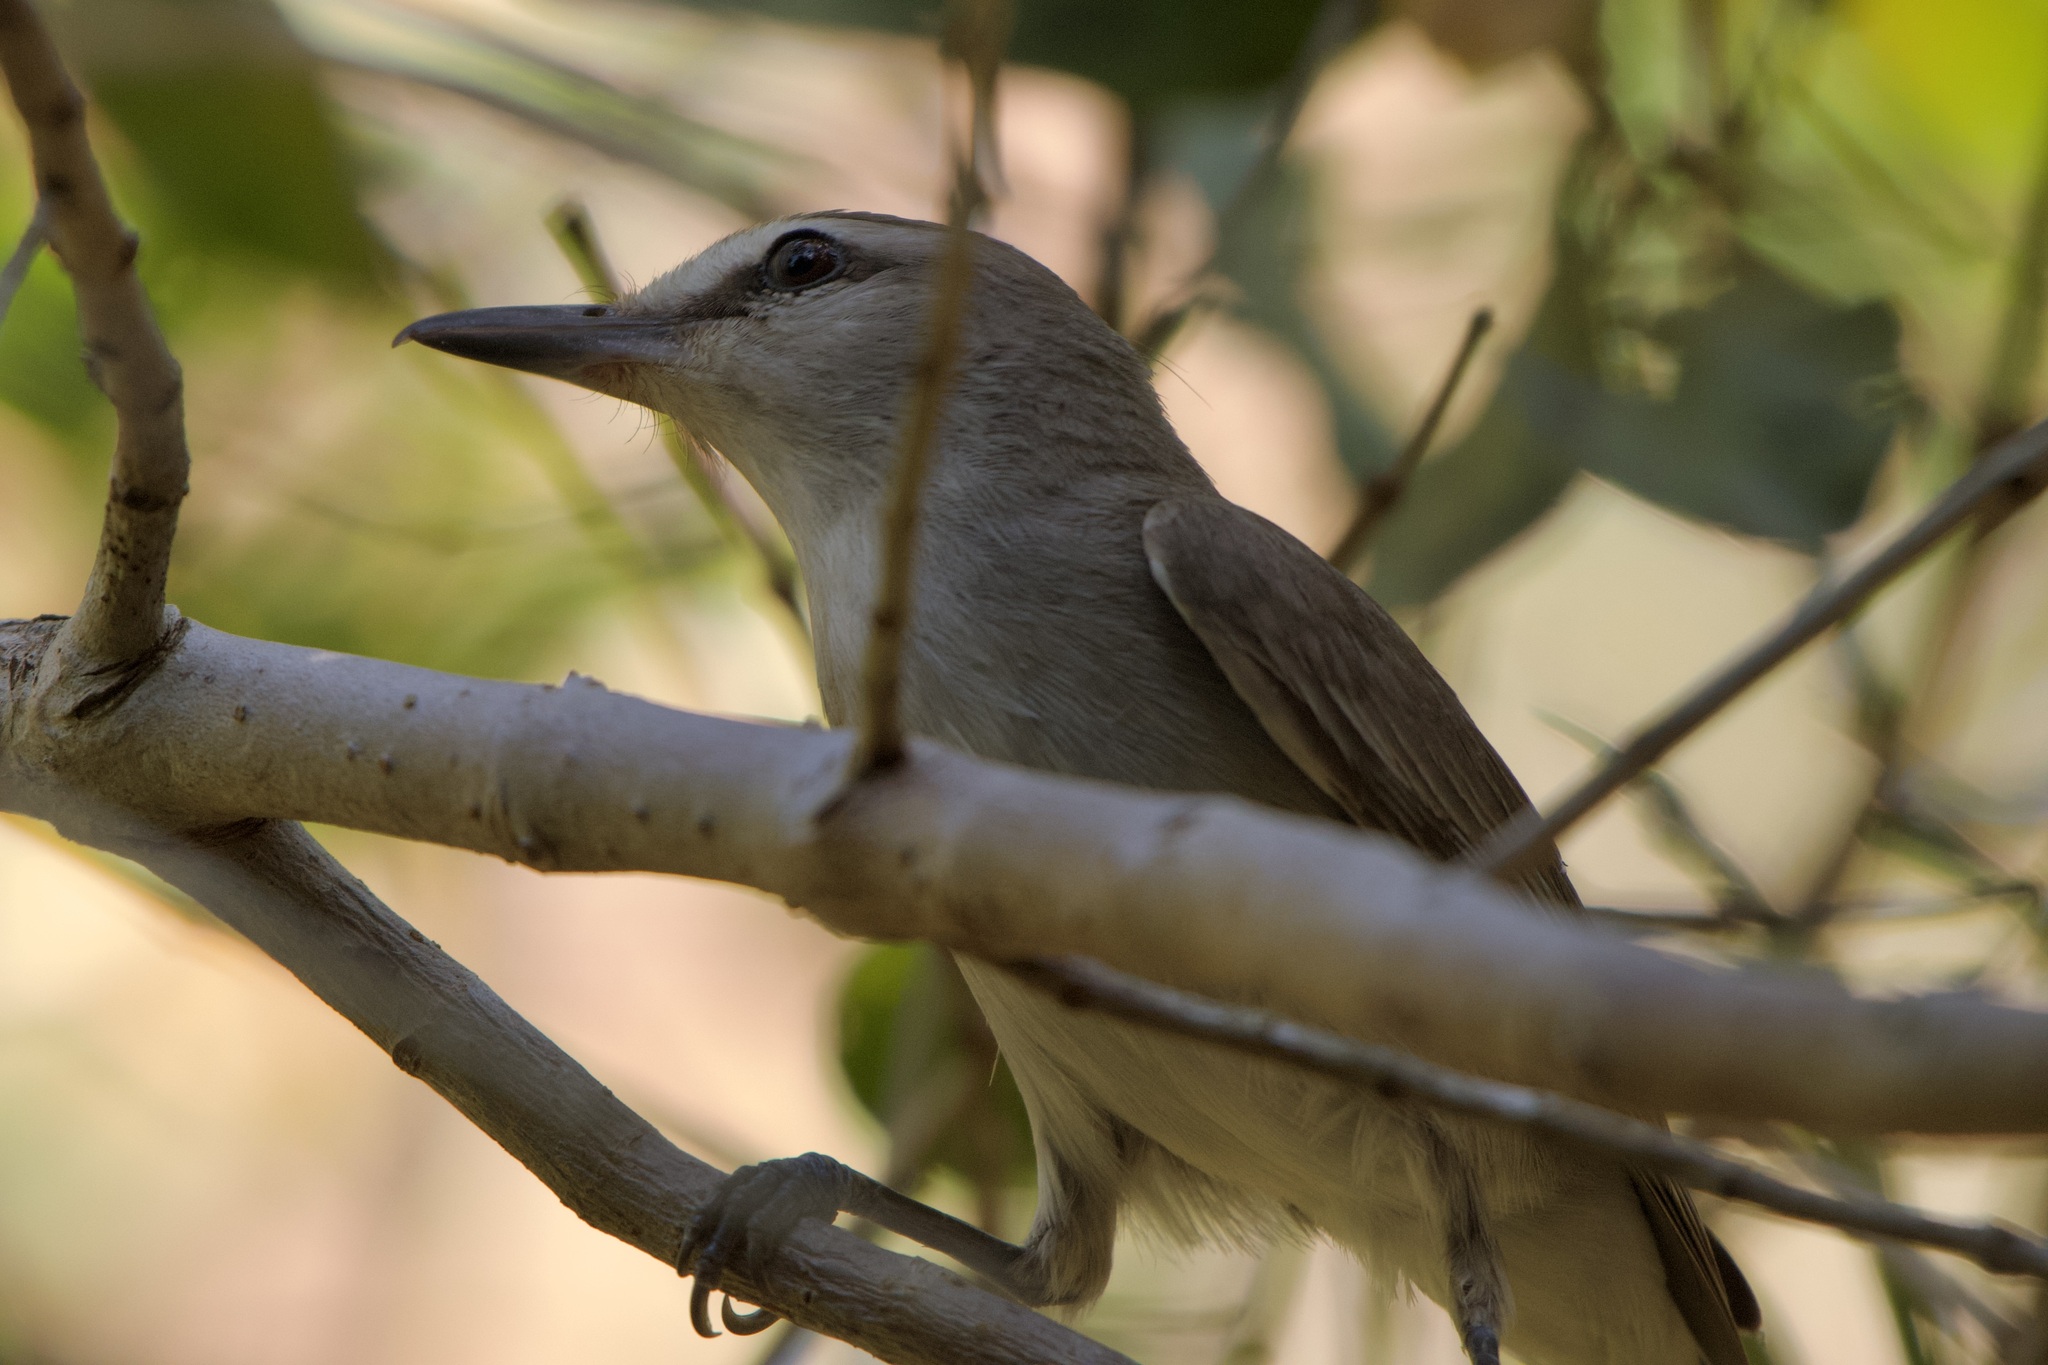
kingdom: Animalia
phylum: Chordata
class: Aves
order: Passeriformes
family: Vireonidae
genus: Vireo
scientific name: Vireo magister
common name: Yucatan vireo
